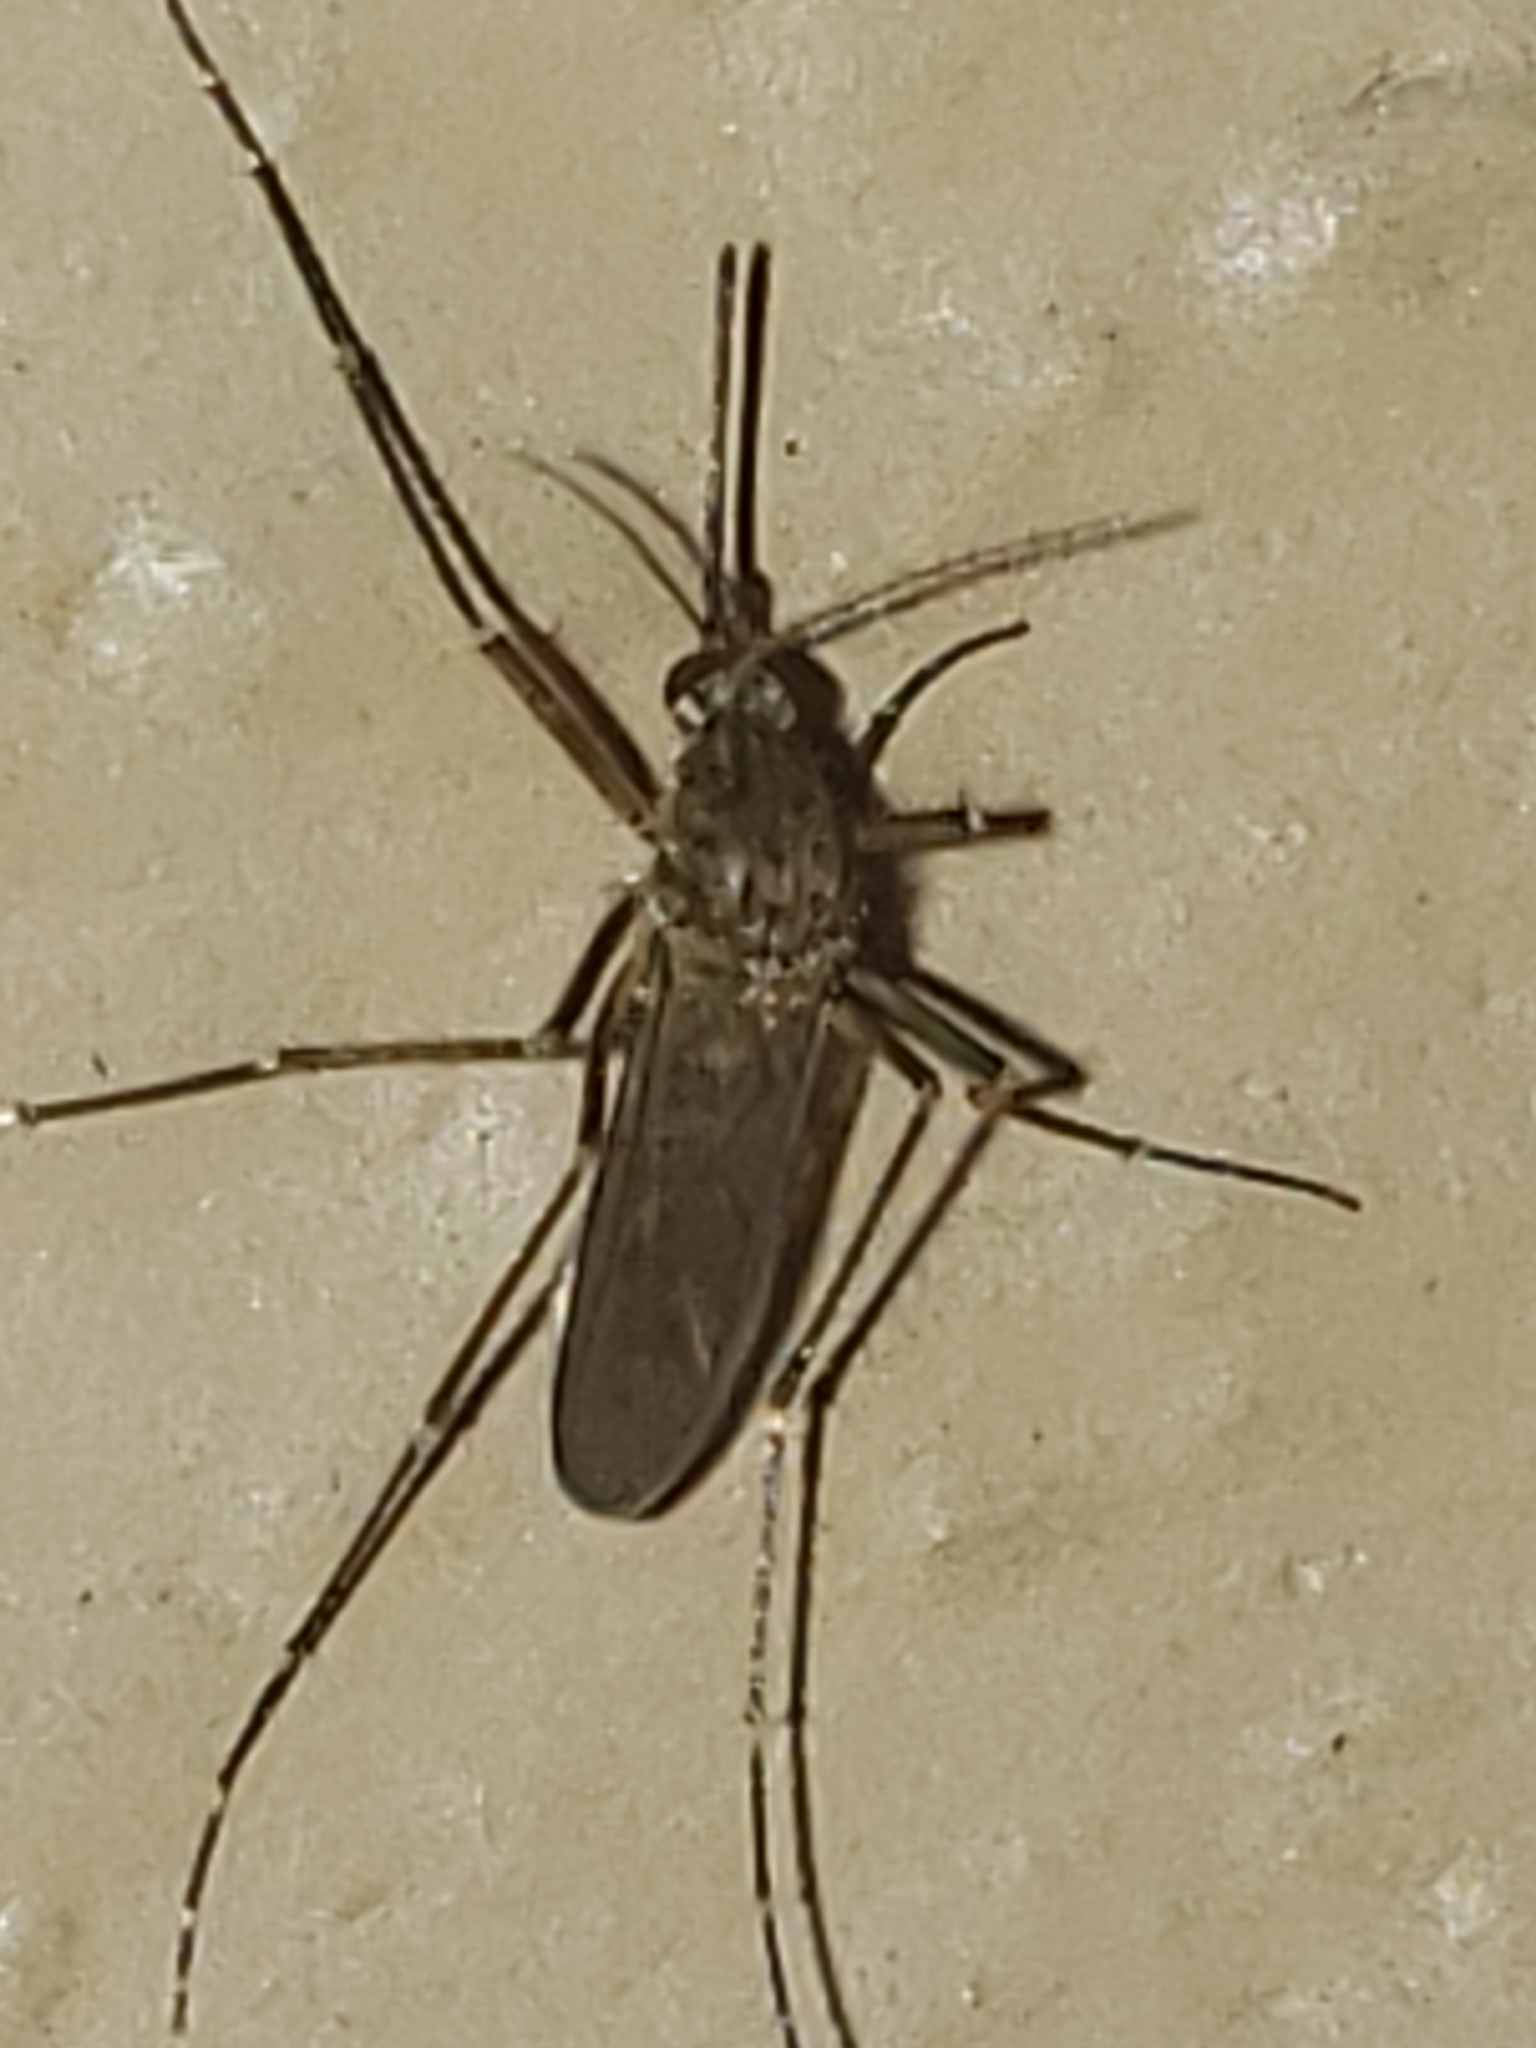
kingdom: Animalia
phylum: Arthropoda
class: Insecta
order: Diptera
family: Culicidae
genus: Aedes
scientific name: Aedes vexans
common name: Inland floodwater mosquito
